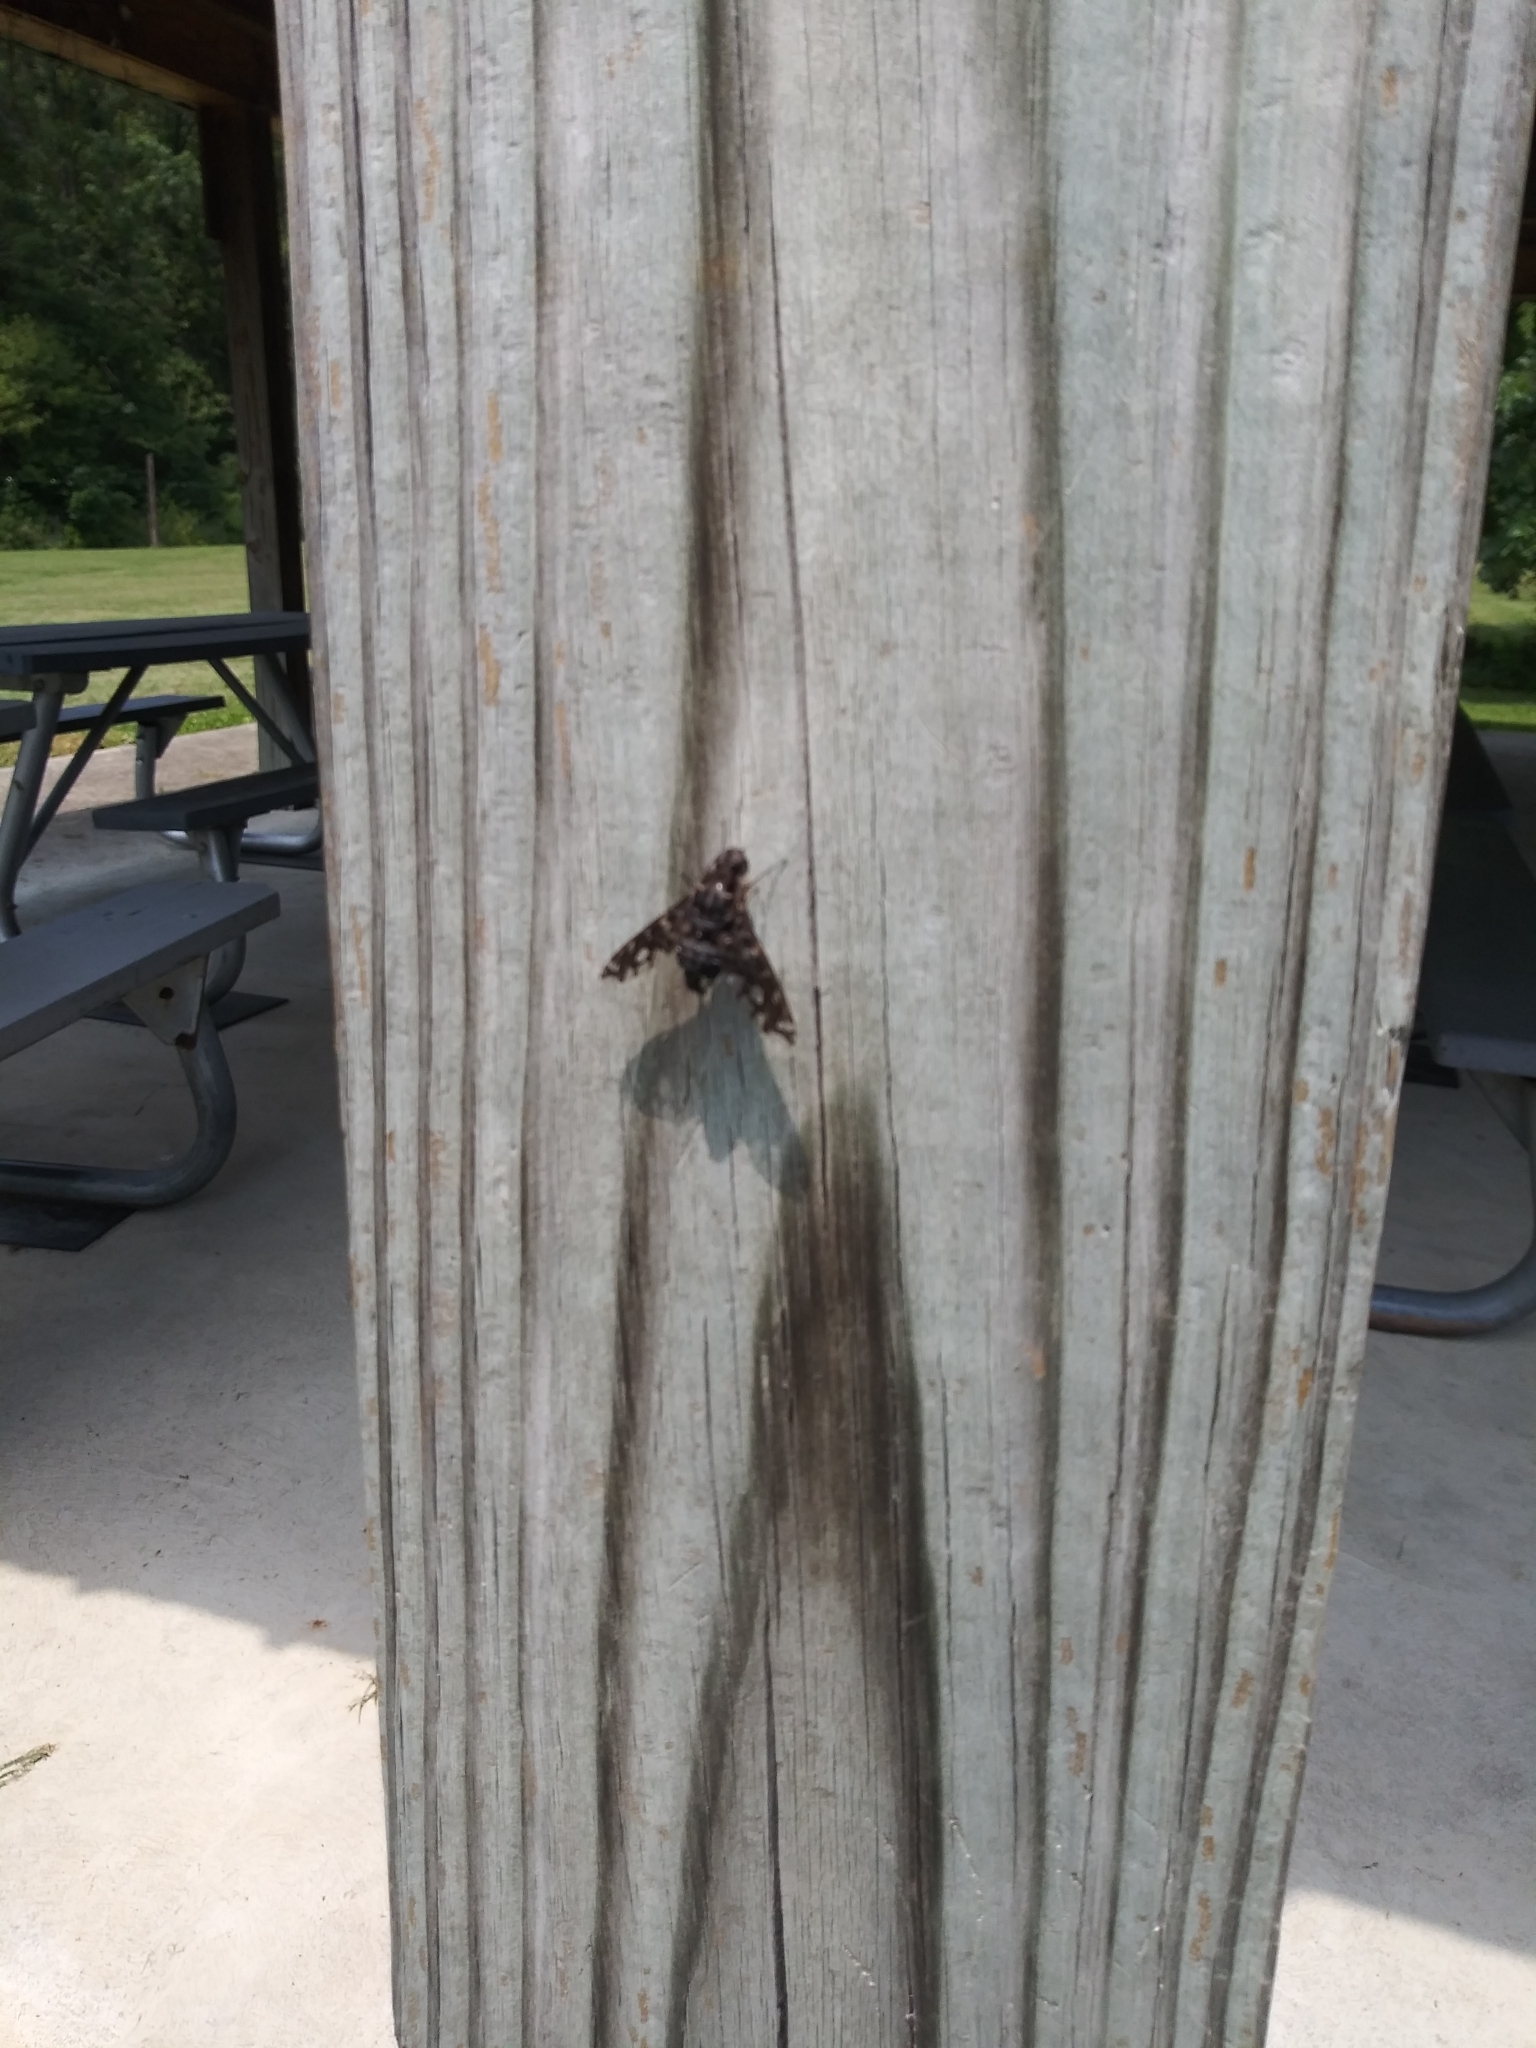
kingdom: Animalia
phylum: Arthropoda
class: Insecta
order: Diptera
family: Bombyliidae
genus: Xenox
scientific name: Xenox tigrinus
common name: Tiger bee fly
